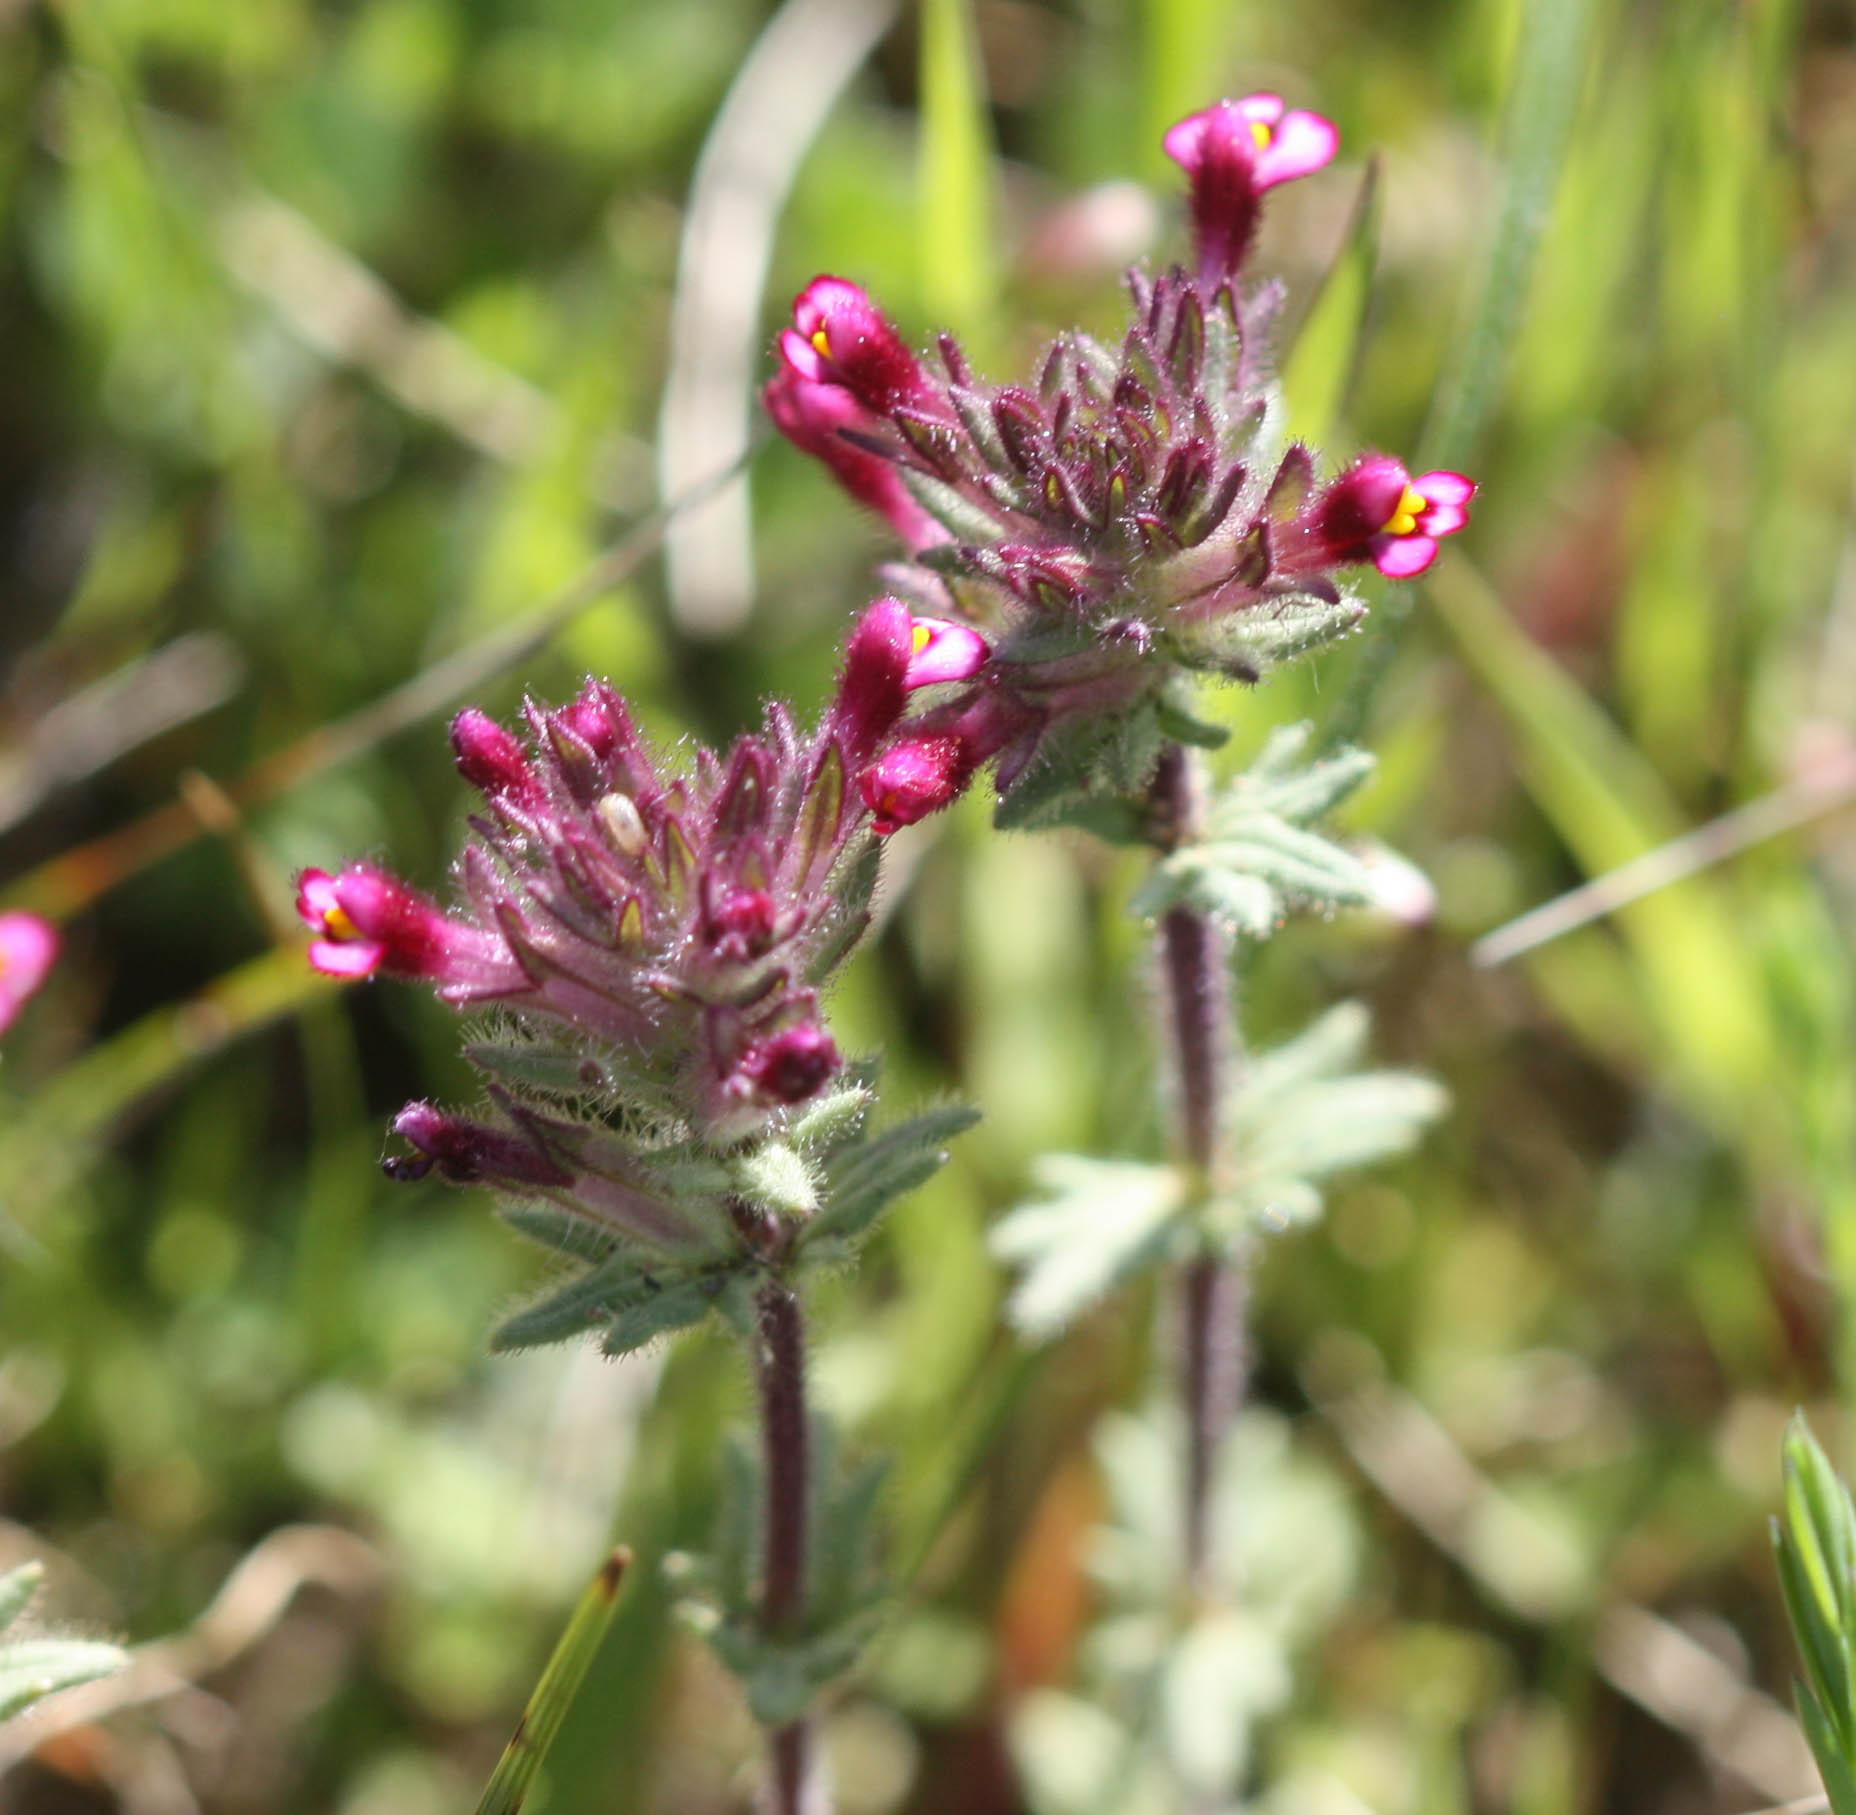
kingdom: Plantae
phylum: Tracheophyta
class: Magnoliopsida
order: Lamiales
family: Orobanchaceae
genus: Parentucellia
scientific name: Parentucellia latifolia
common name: Broadleaf glandweed
